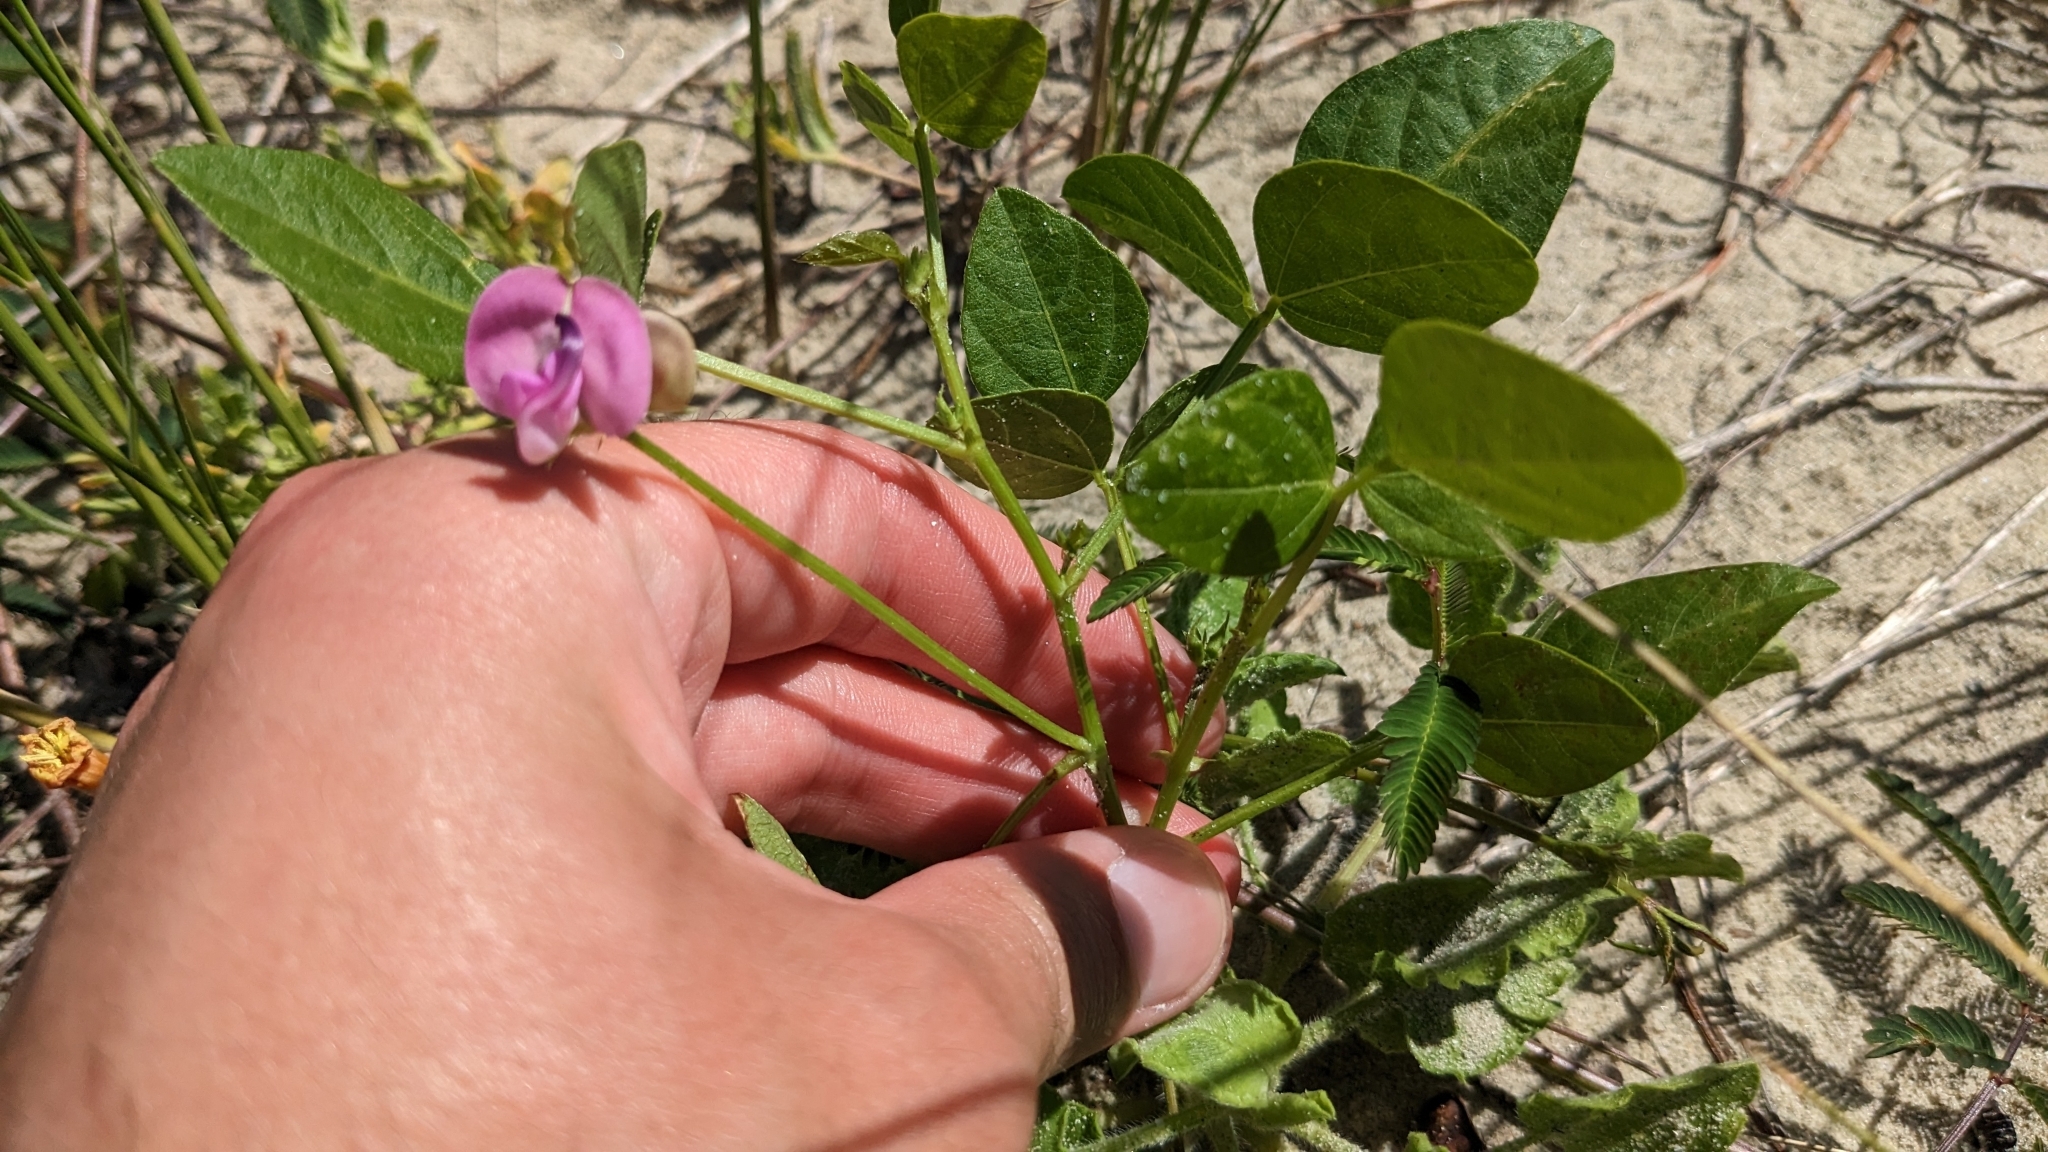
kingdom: Plantae
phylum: Tracheophyta
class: Magnoliopsida
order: Fabales
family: Fabaceae
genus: Strophostyles
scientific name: Strophostyles helvola
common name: Trailing wild bean
